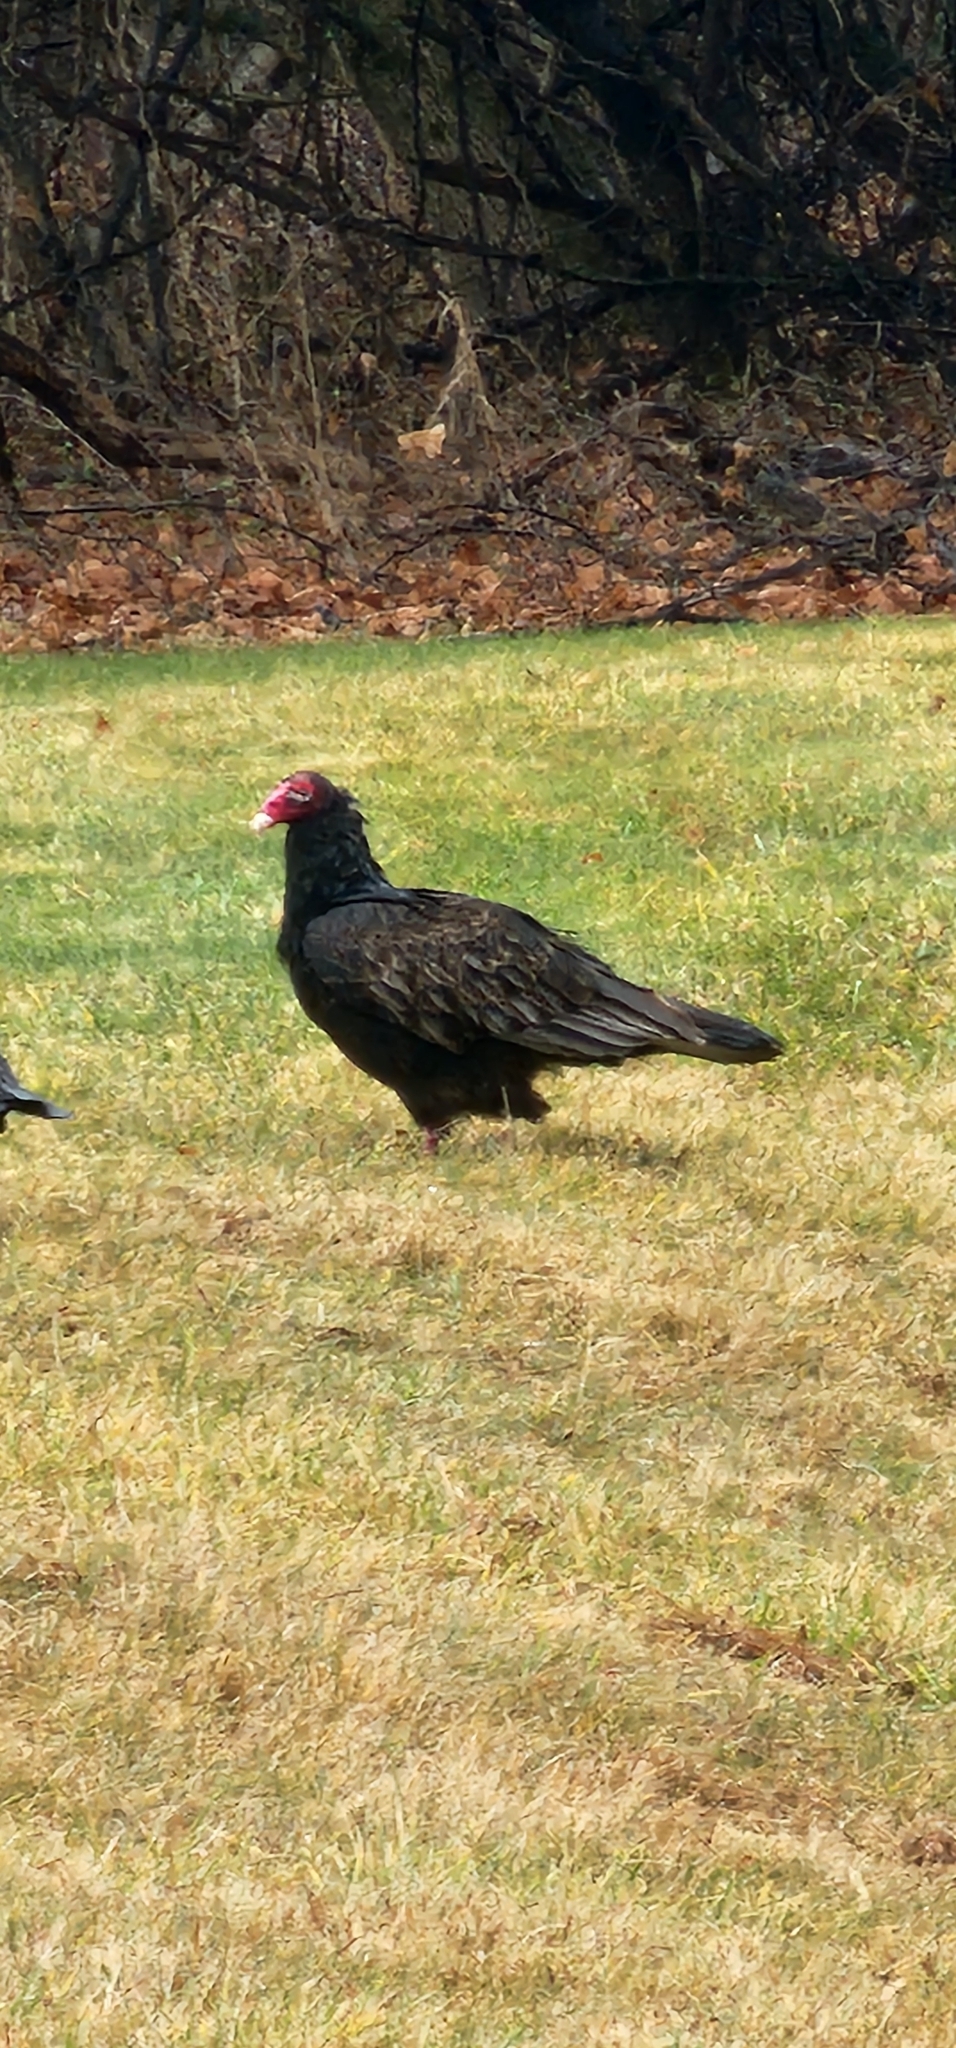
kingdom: Animalia
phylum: Chordata
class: Aves
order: Accipitriformes
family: Cathartidae
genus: Cathartes
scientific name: Cathartes aura
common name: Turkey vulture
